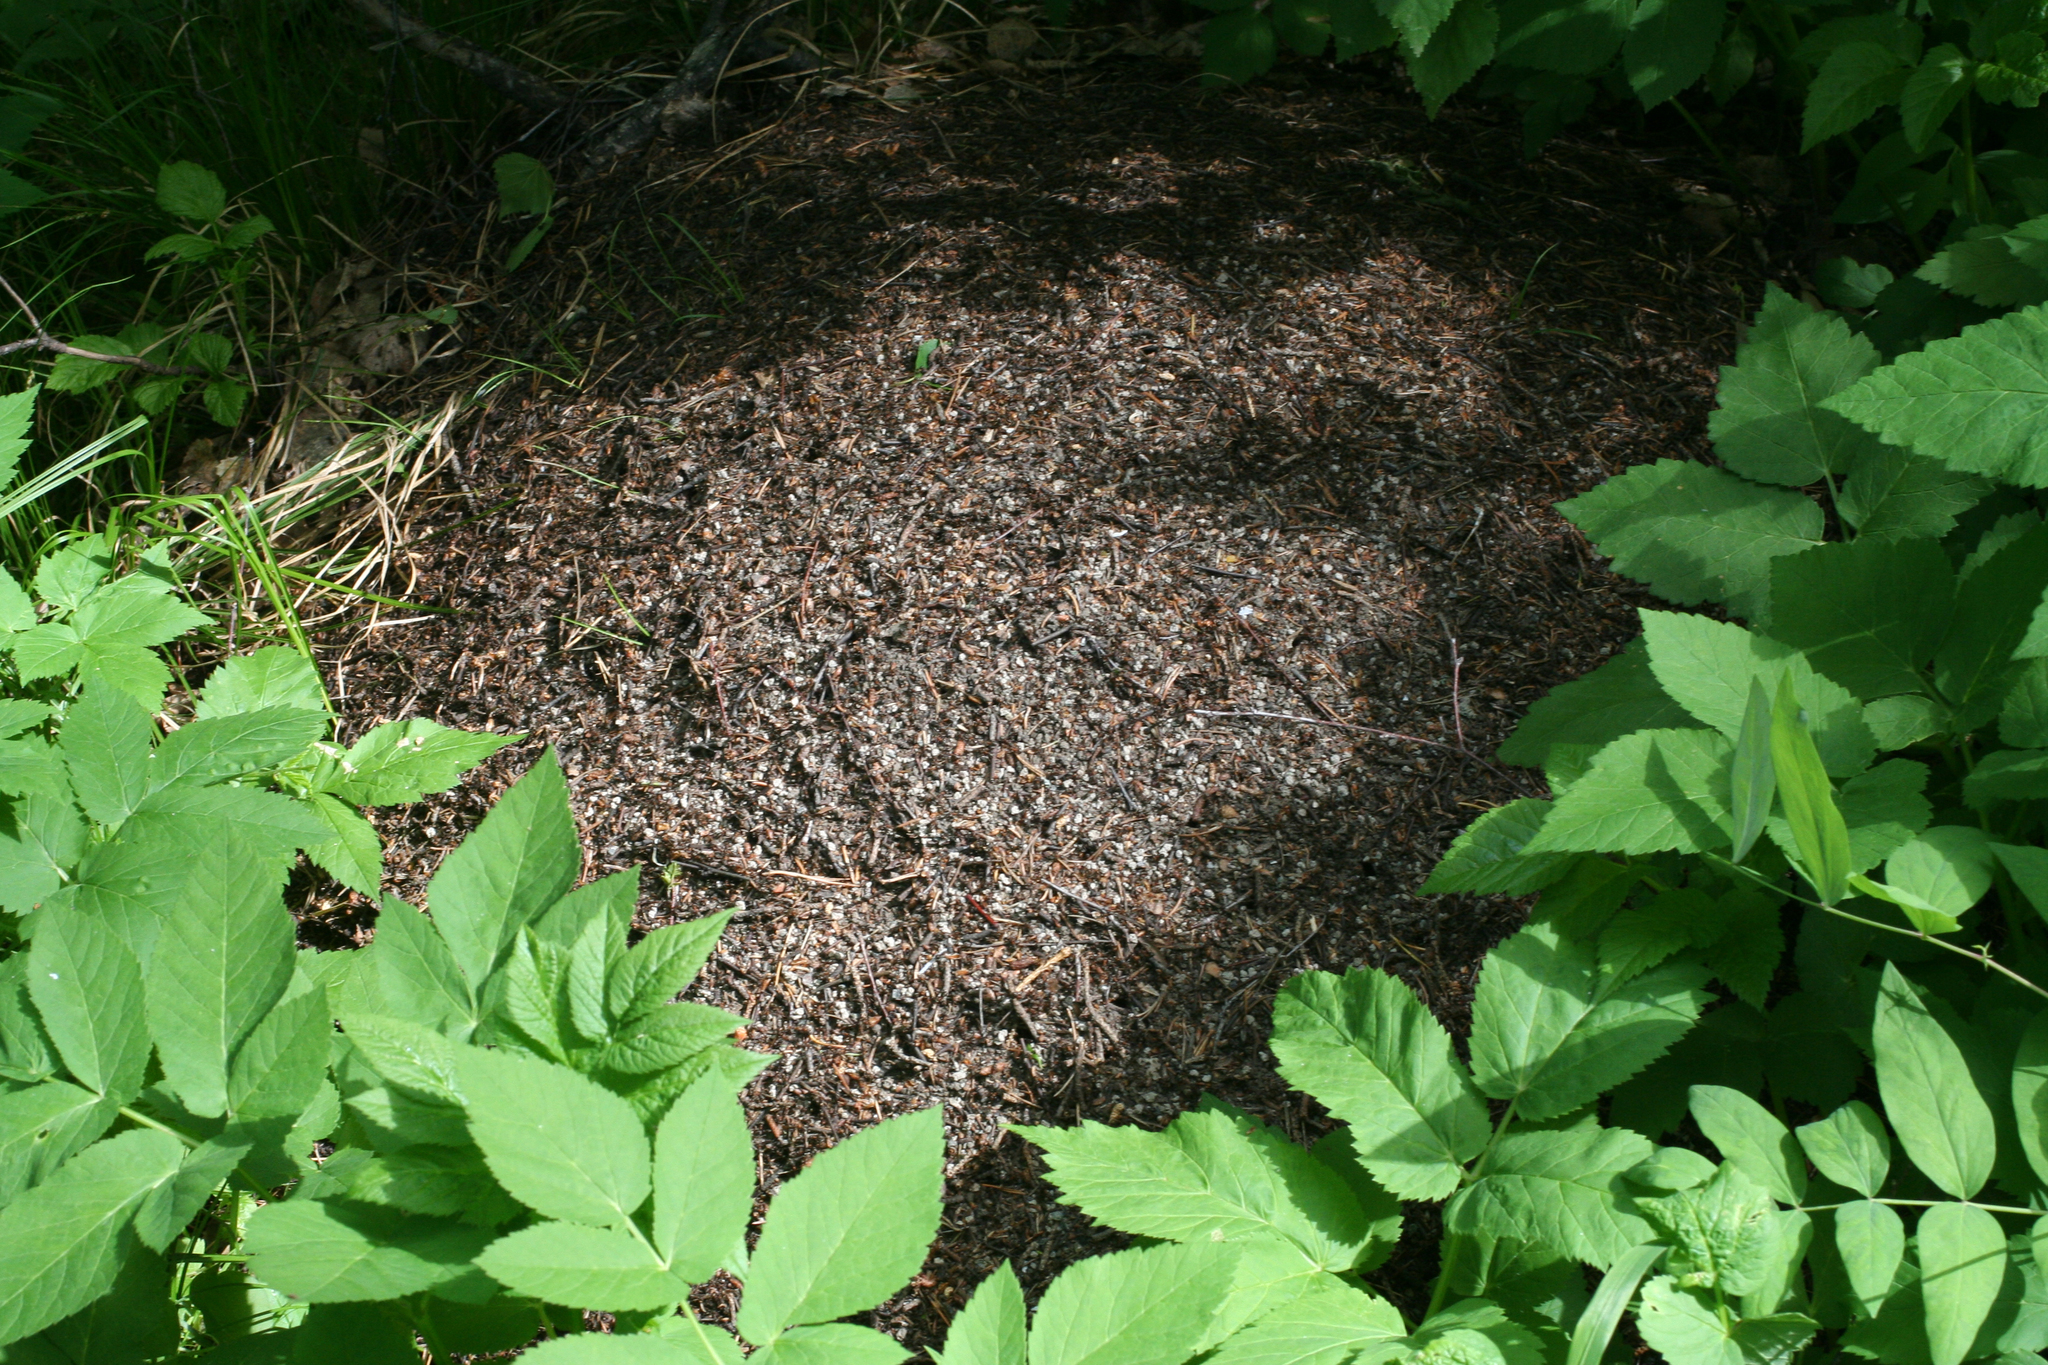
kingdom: Plantae
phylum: Tracheophyta
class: Magnoliopsida
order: Apiales
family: Apiaceae
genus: Aegopodium
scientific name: Aegopodium podagraria
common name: Ground-elder
